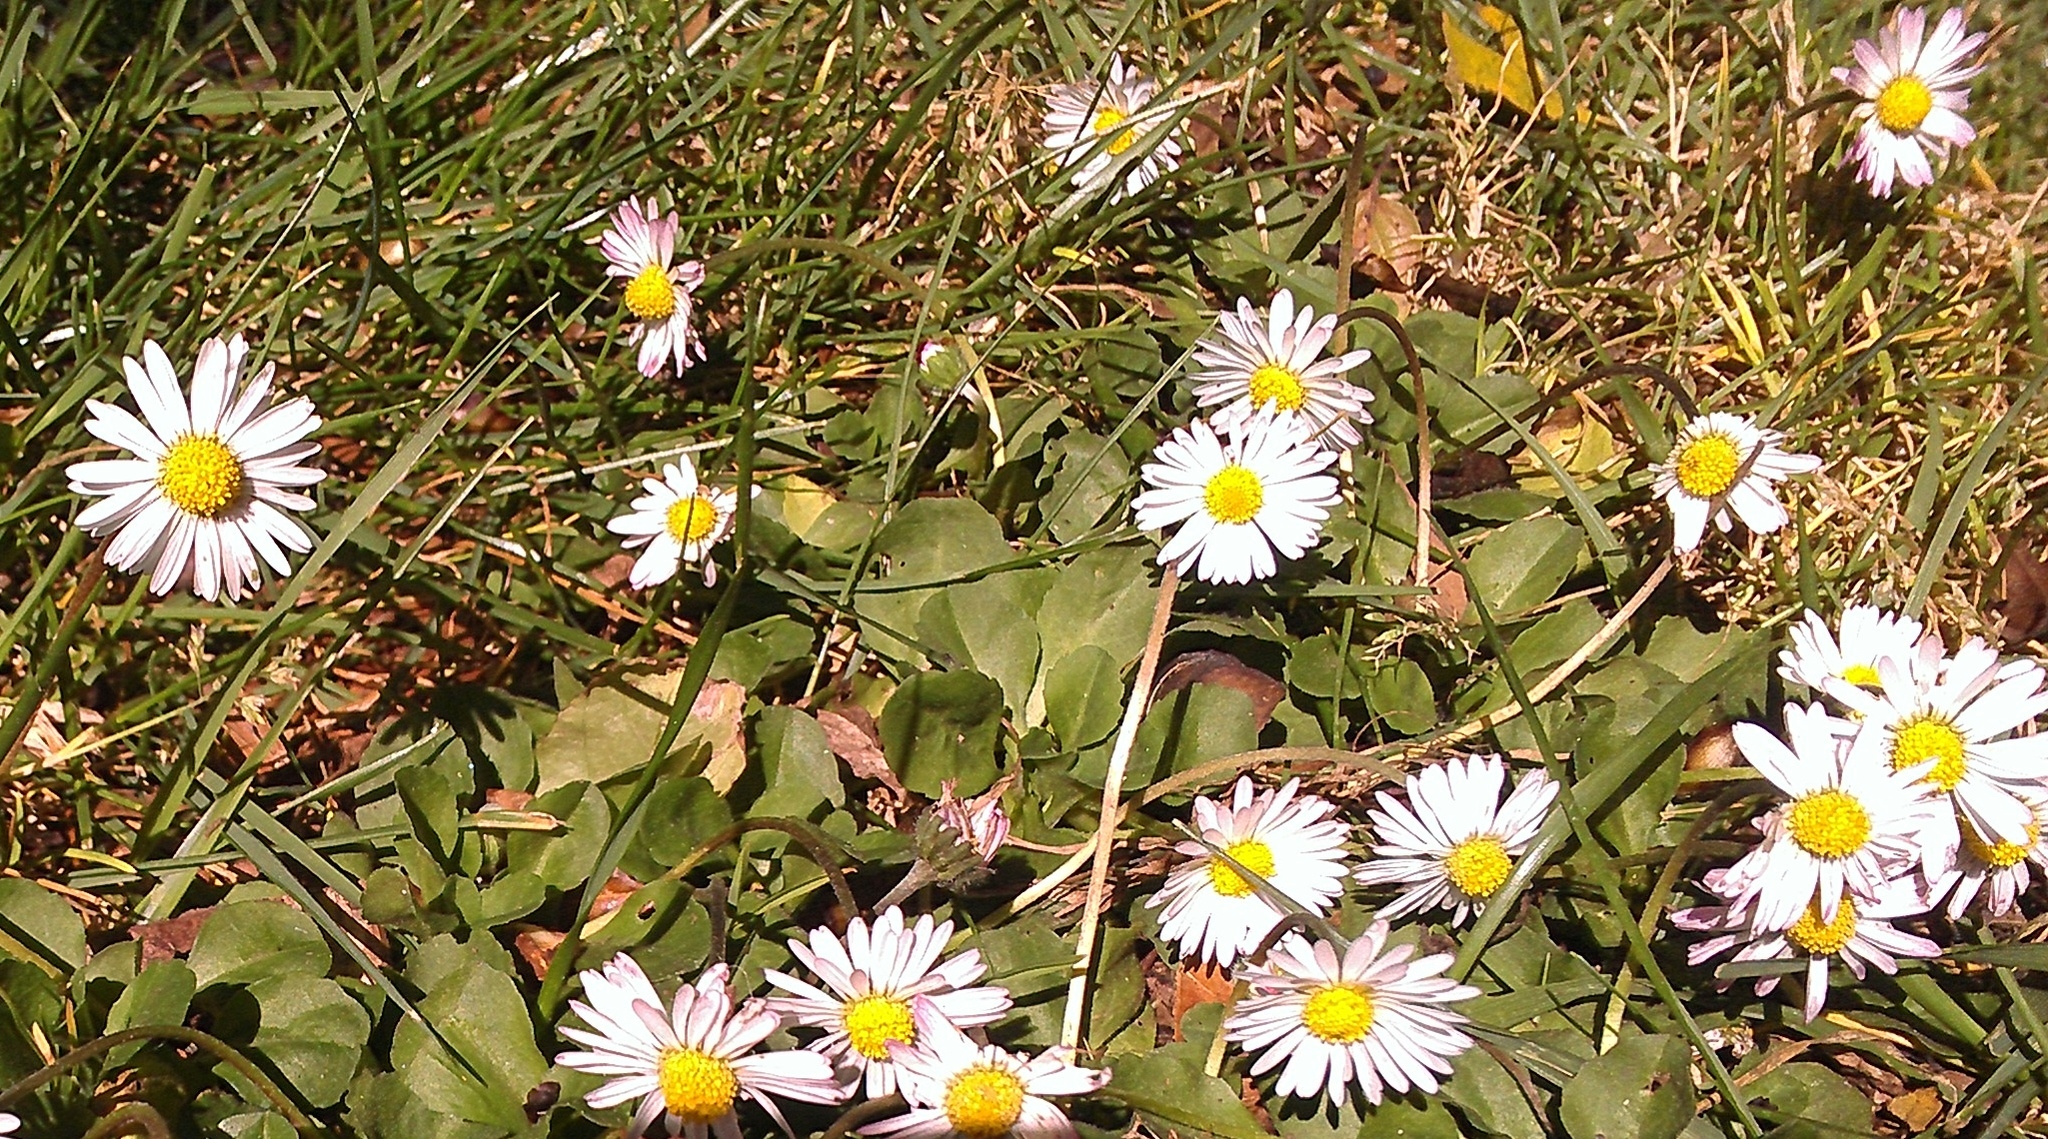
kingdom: Plantae
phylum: Tracheophyta
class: Magnoliopsida
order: Asterales
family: Asteraceae
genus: Bellis
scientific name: Bellis perennis
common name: Lawndaisy
